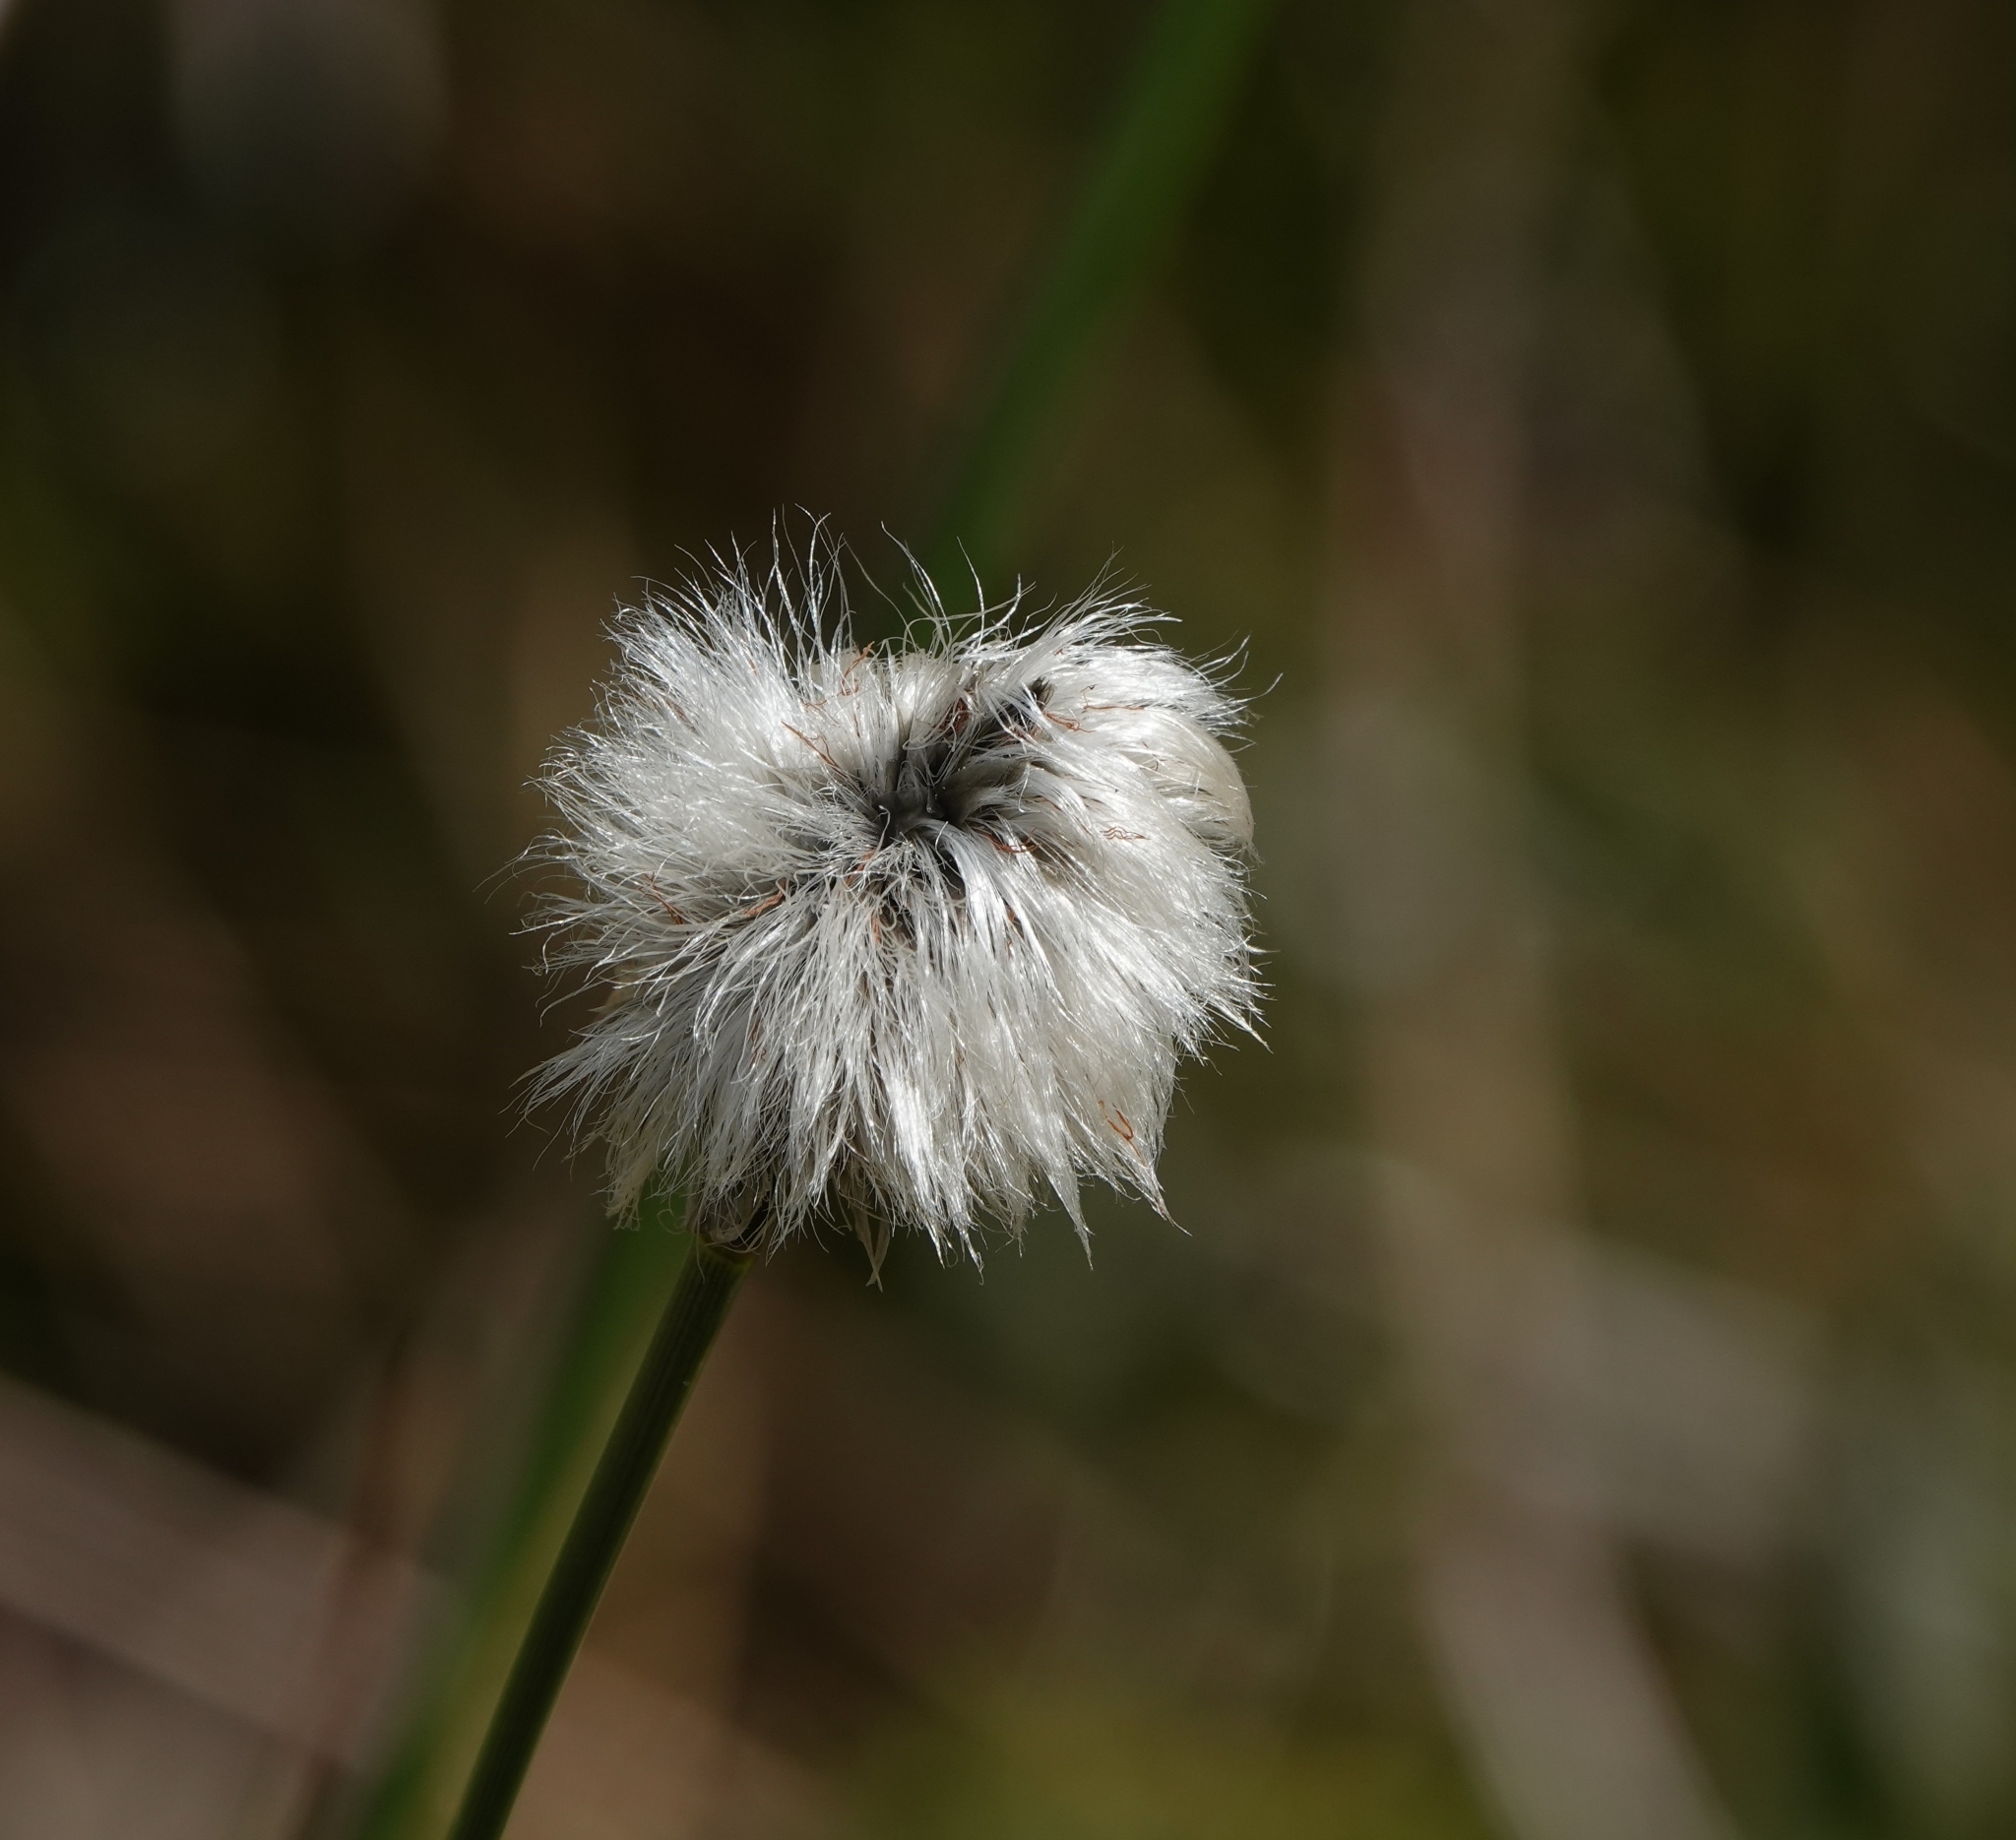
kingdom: Plantae
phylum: Tracheophyta
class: Liliopsida
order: Poales
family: Cyperaceae
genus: Eriophorum
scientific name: Eriophorum vaginatum
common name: Hare's-tail cottongrass
